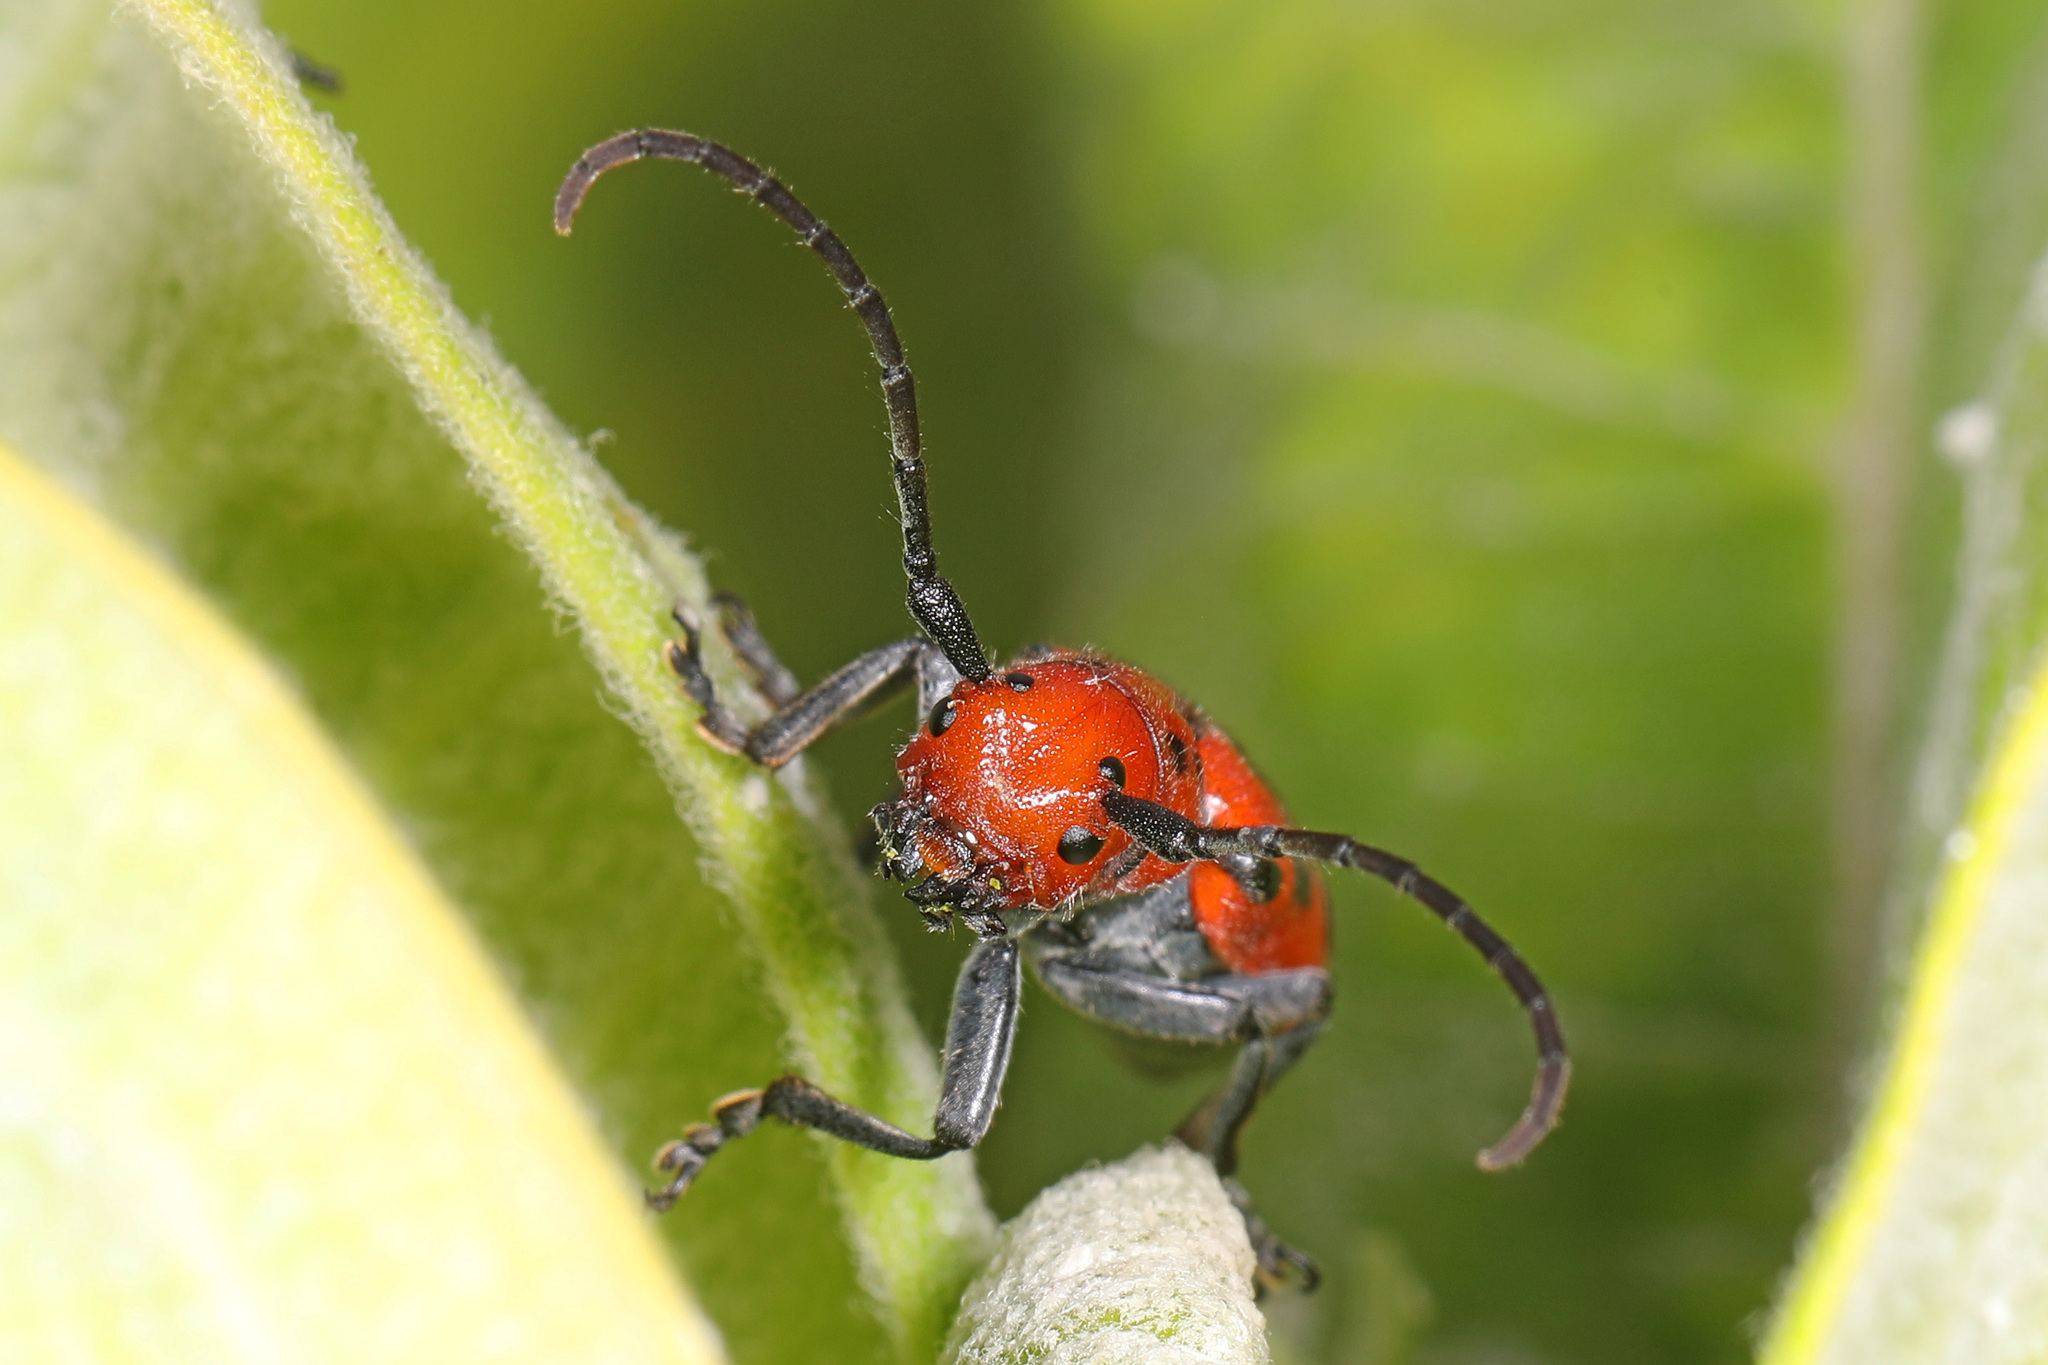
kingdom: Animalia
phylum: Arthropoda
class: Insecta
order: Coleoptera
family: Cerambycidae
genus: Tetraopes
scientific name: Tetraopes tetrophthalmus
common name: Red milkweed beetle
